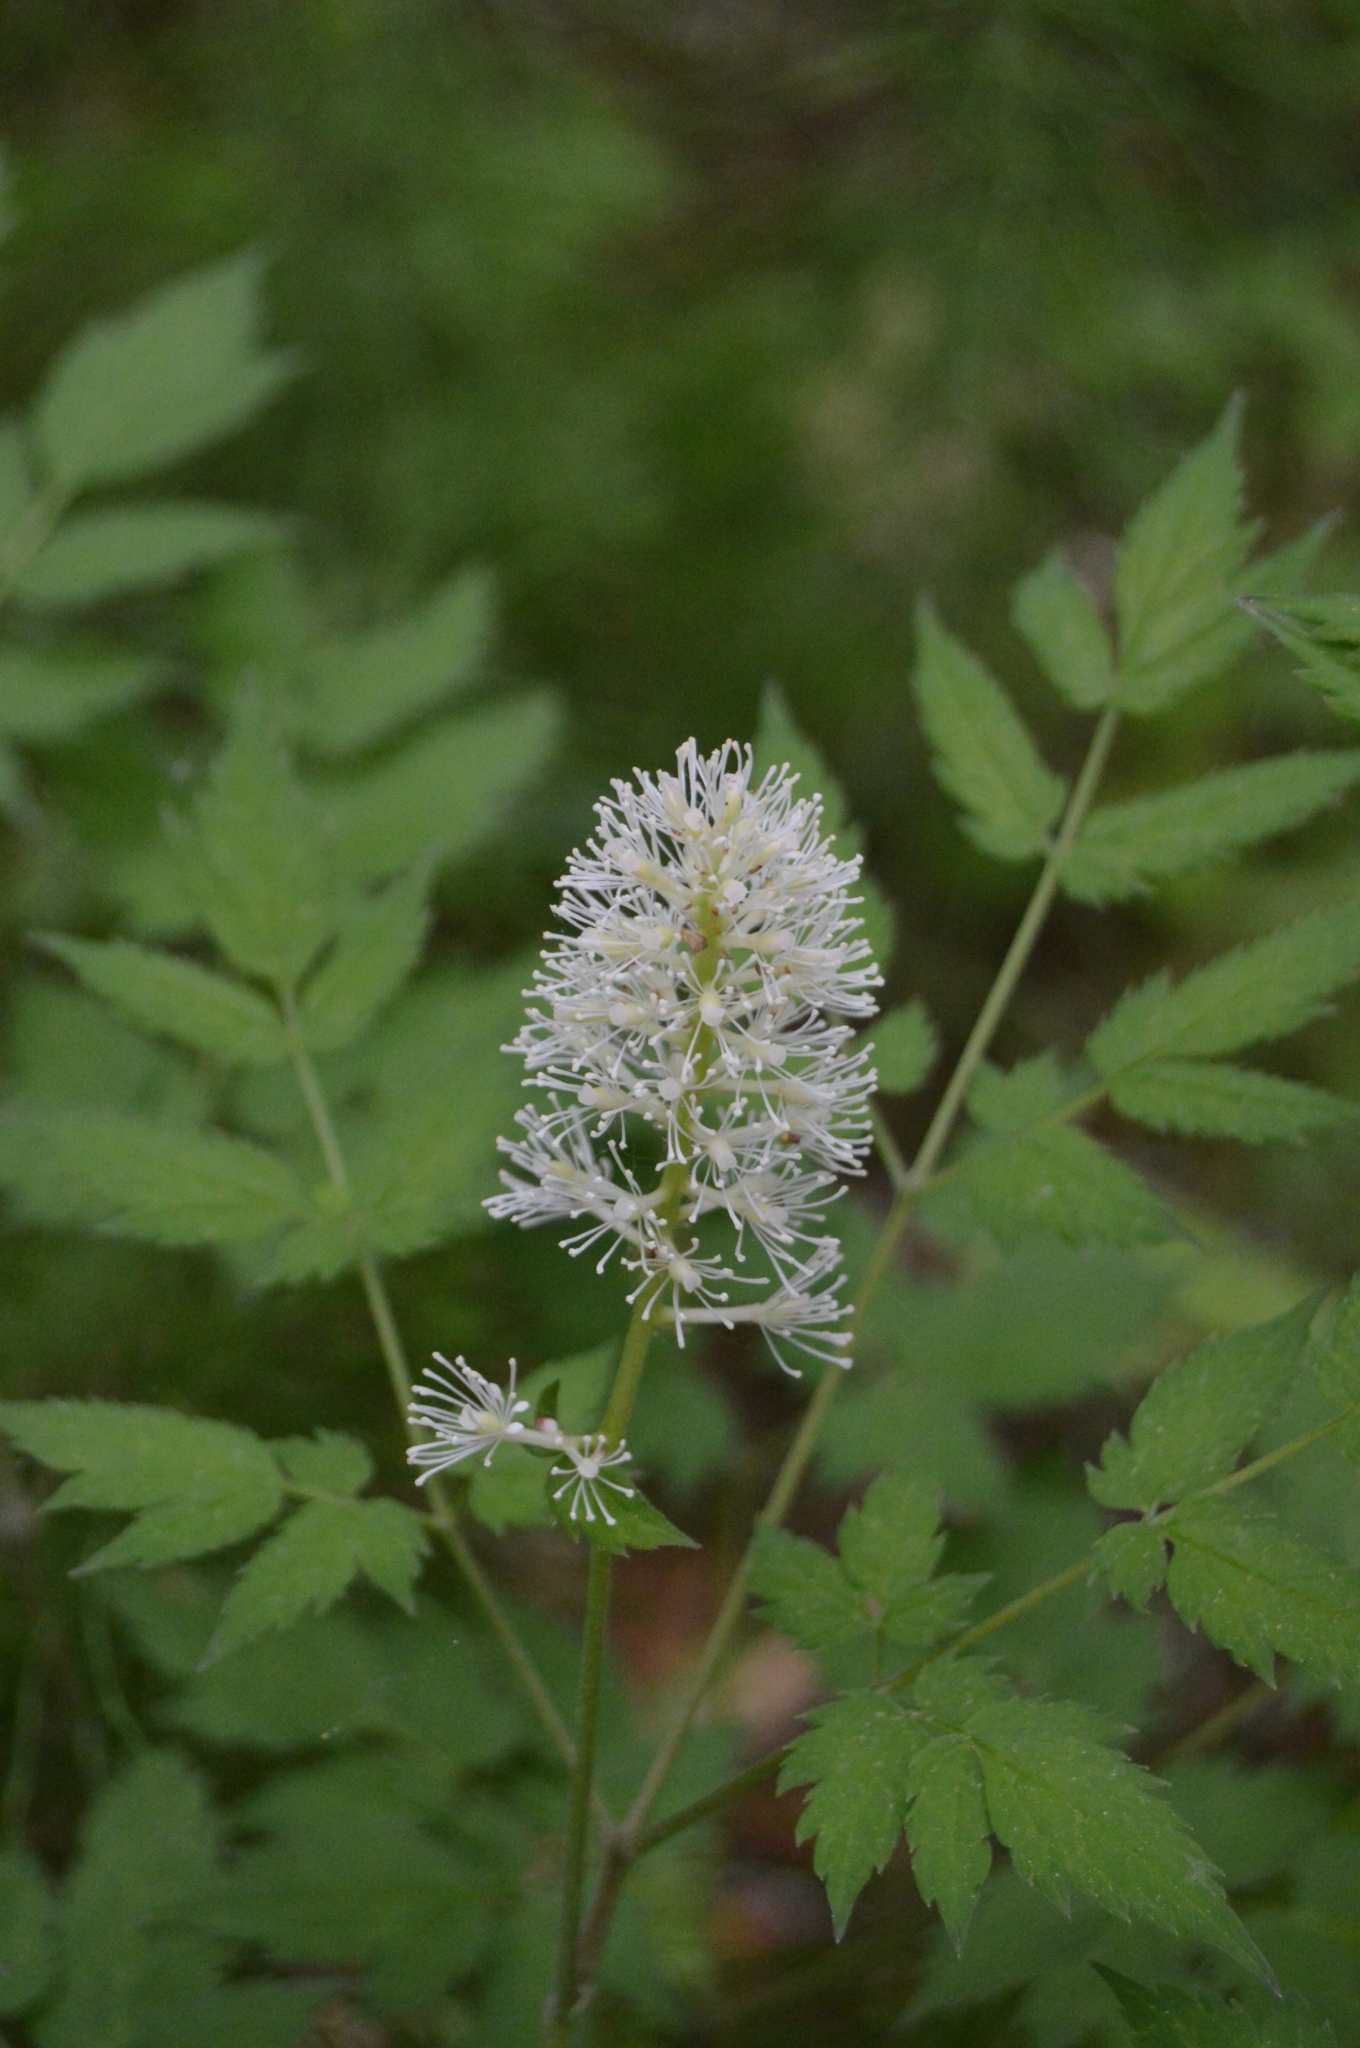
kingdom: Plantae
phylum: Tracheophyta
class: Magnoliopsida
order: Ranunculales
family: Ranunculaceae
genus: Actaea
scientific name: Actaea erythrocarpa
